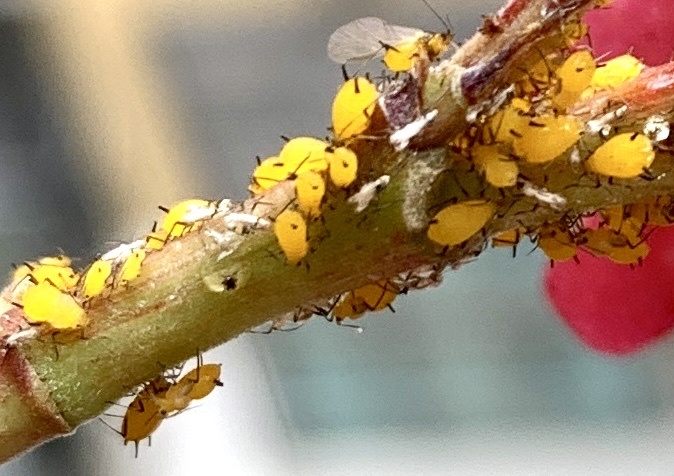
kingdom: Animalia
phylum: Arthropoda
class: Insecta
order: Hemiptera
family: Aphididae
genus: Aphis
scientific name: Aphis nerii
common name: Oleander aphid
